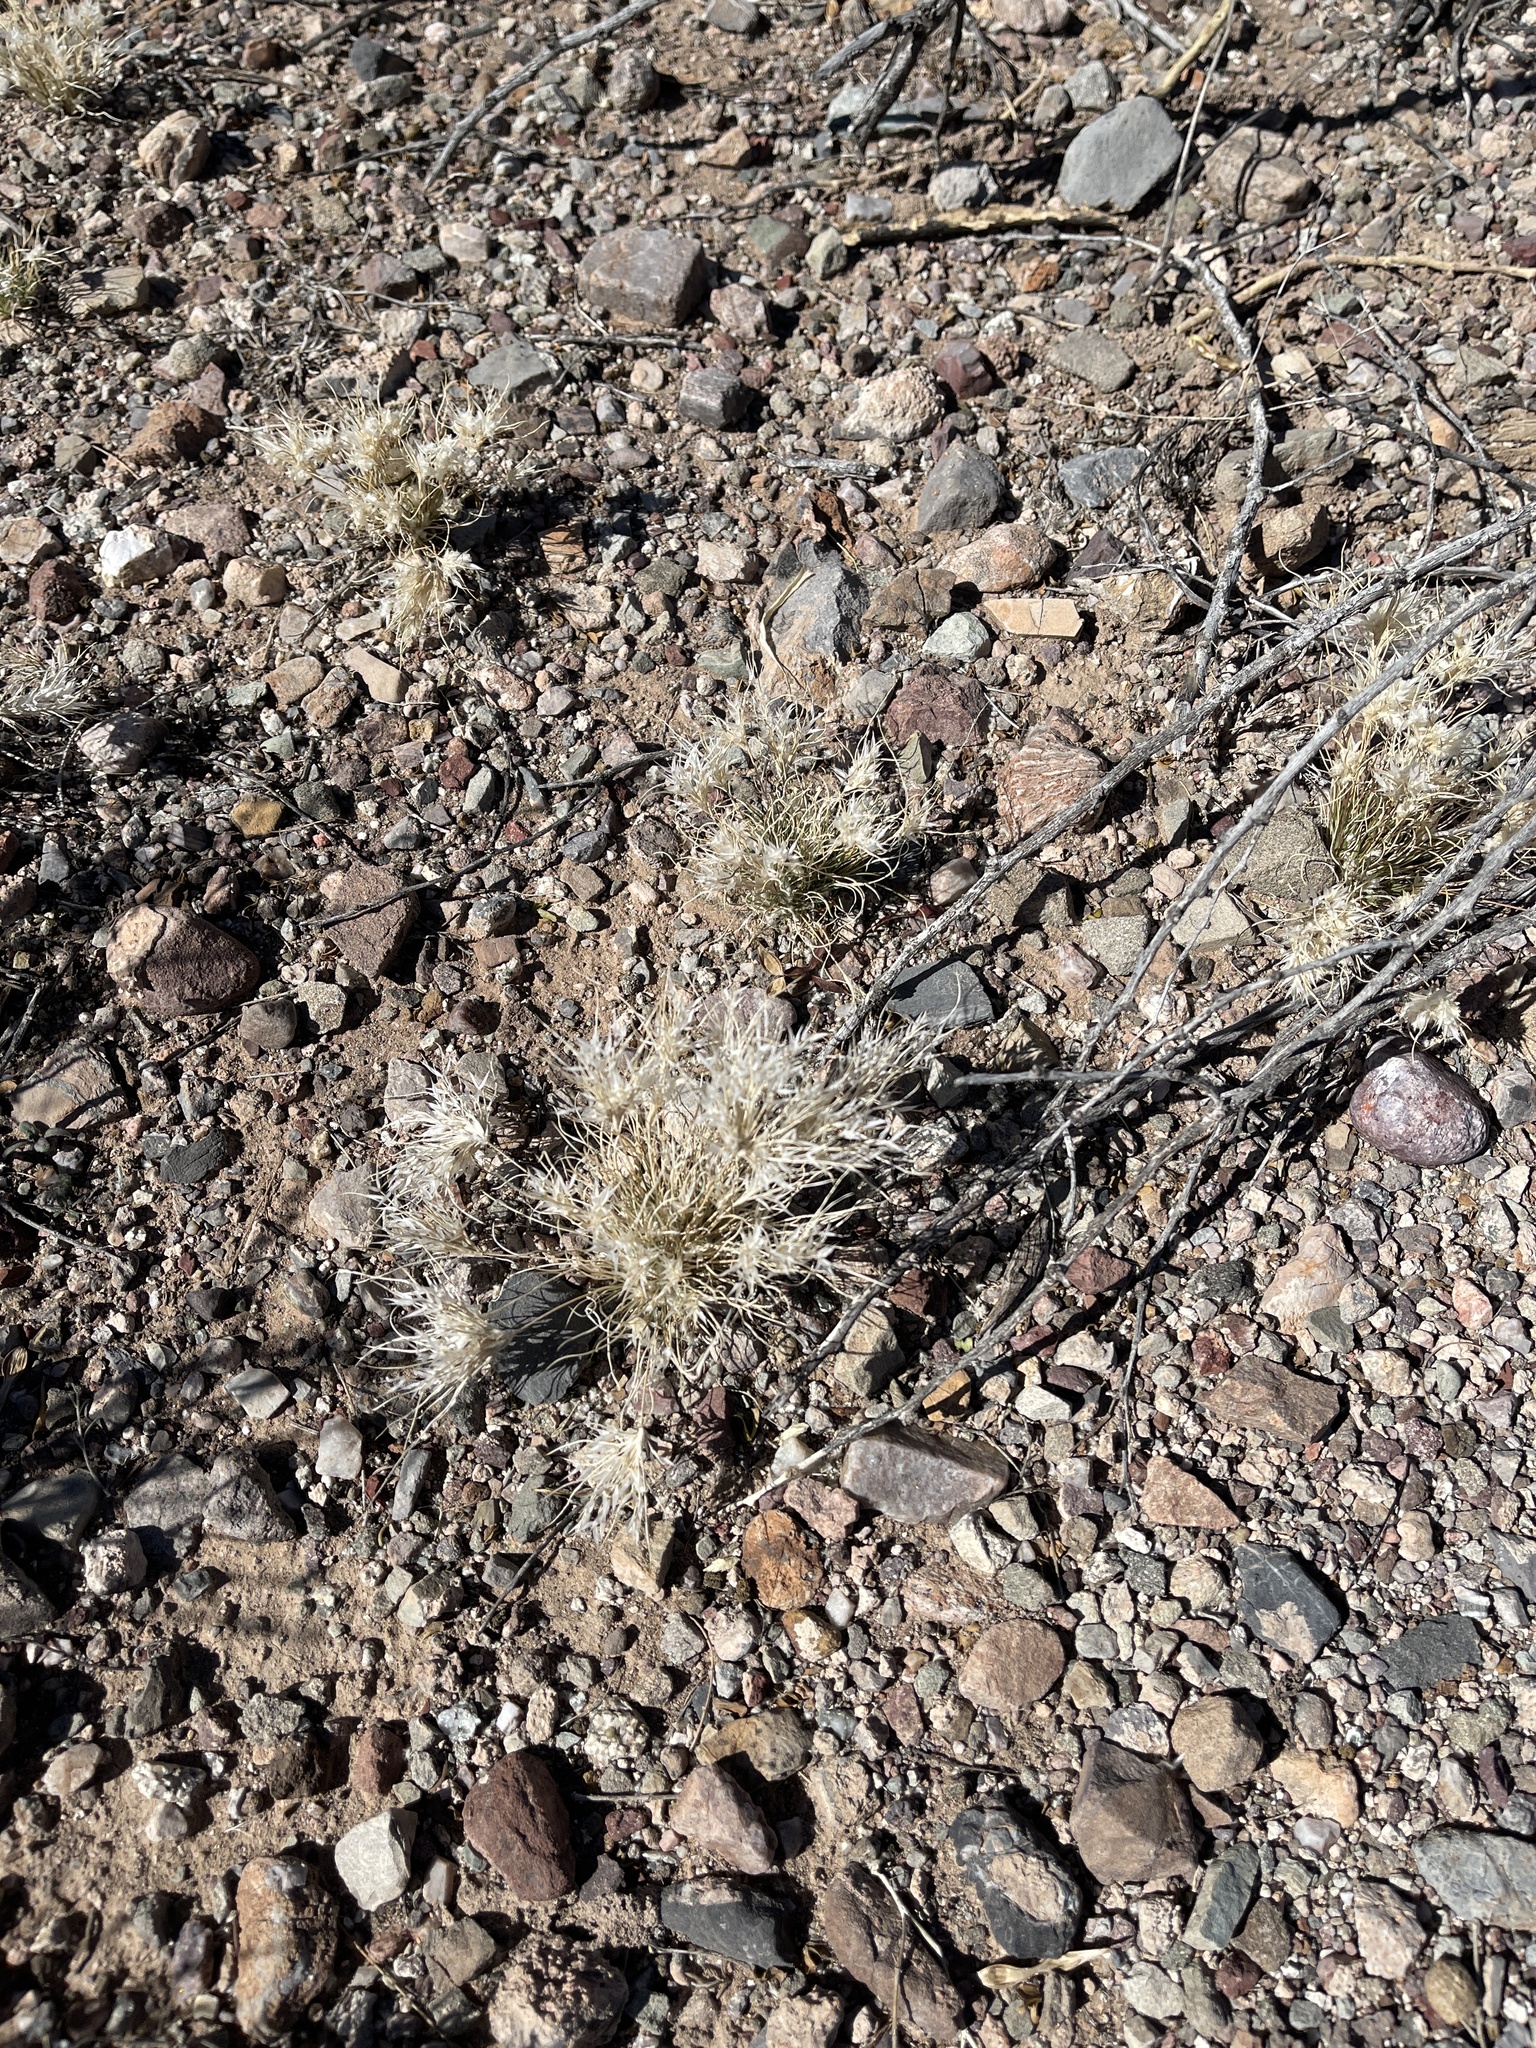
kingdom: Plantae
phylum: Tracheophyta
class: Liliopsida
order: Poales
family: Poaceae
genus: Dasyochloa
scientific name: Dasyochloa pulchella
